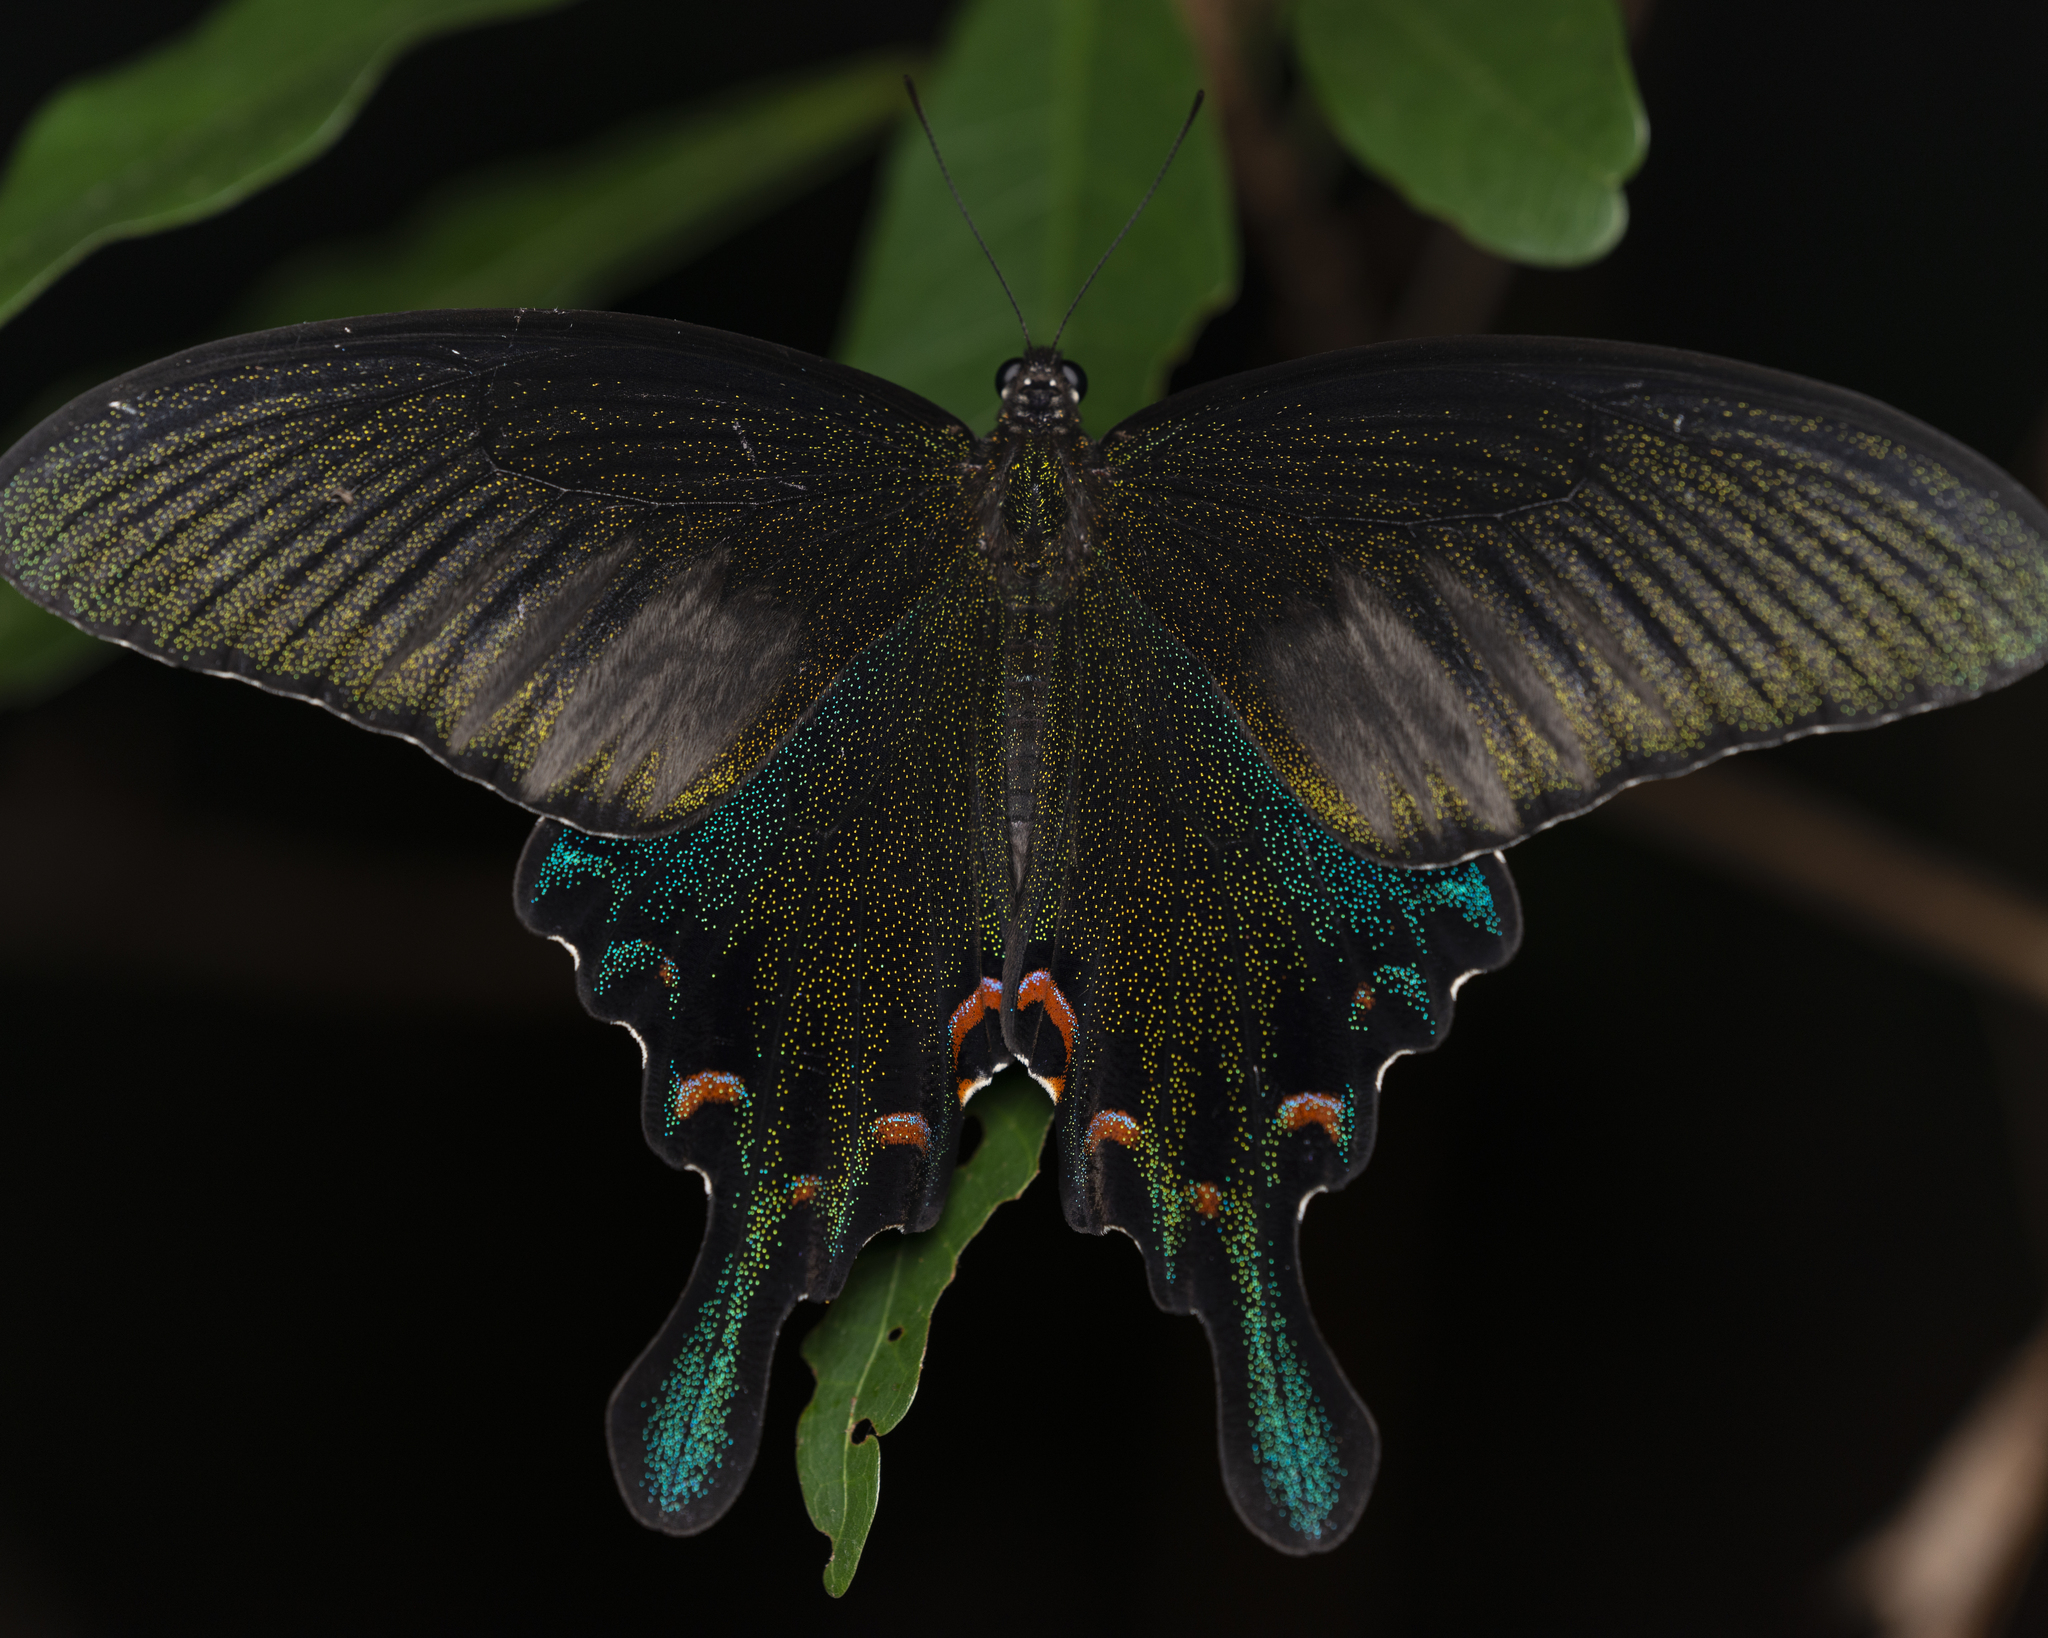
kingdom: Animalia
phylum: Arthropoda
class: Insecta
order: Lepidoptera
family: Papilionidae
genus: Papilio
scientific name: Papilio bianor
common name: Common peacock
